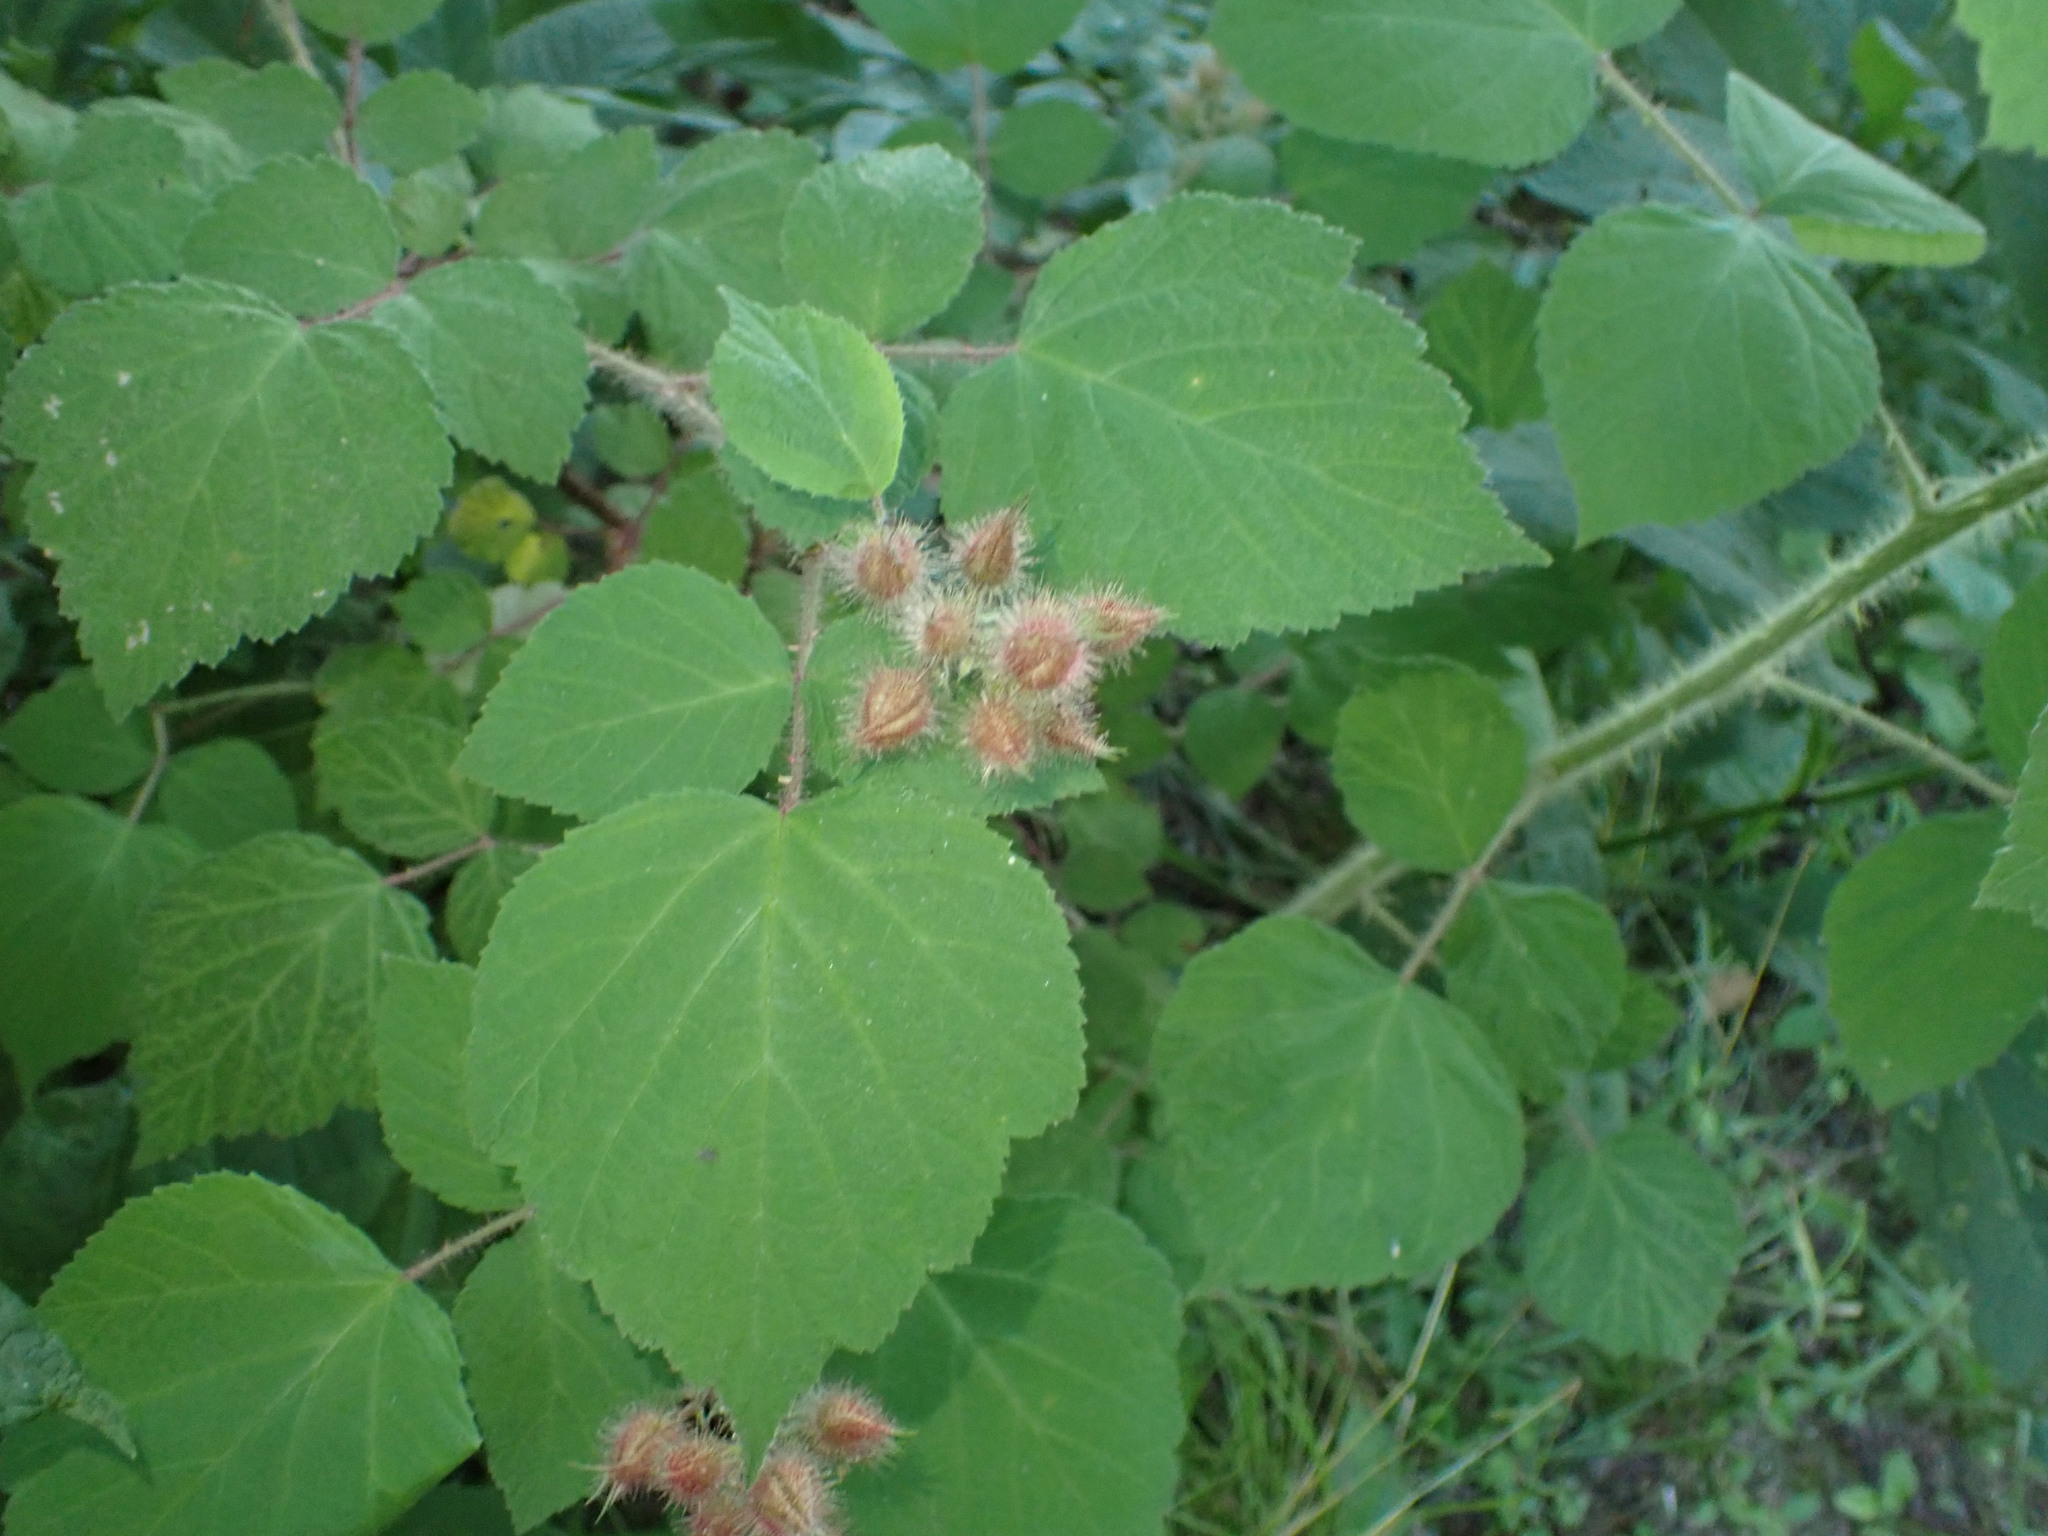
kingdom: Plantae
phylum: Tracheophyta
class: Magnoliopsida
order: Rosales
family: Rosaceae
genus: Rubus
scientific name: Rubus phoenicolasius
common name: Japanese wineberry
